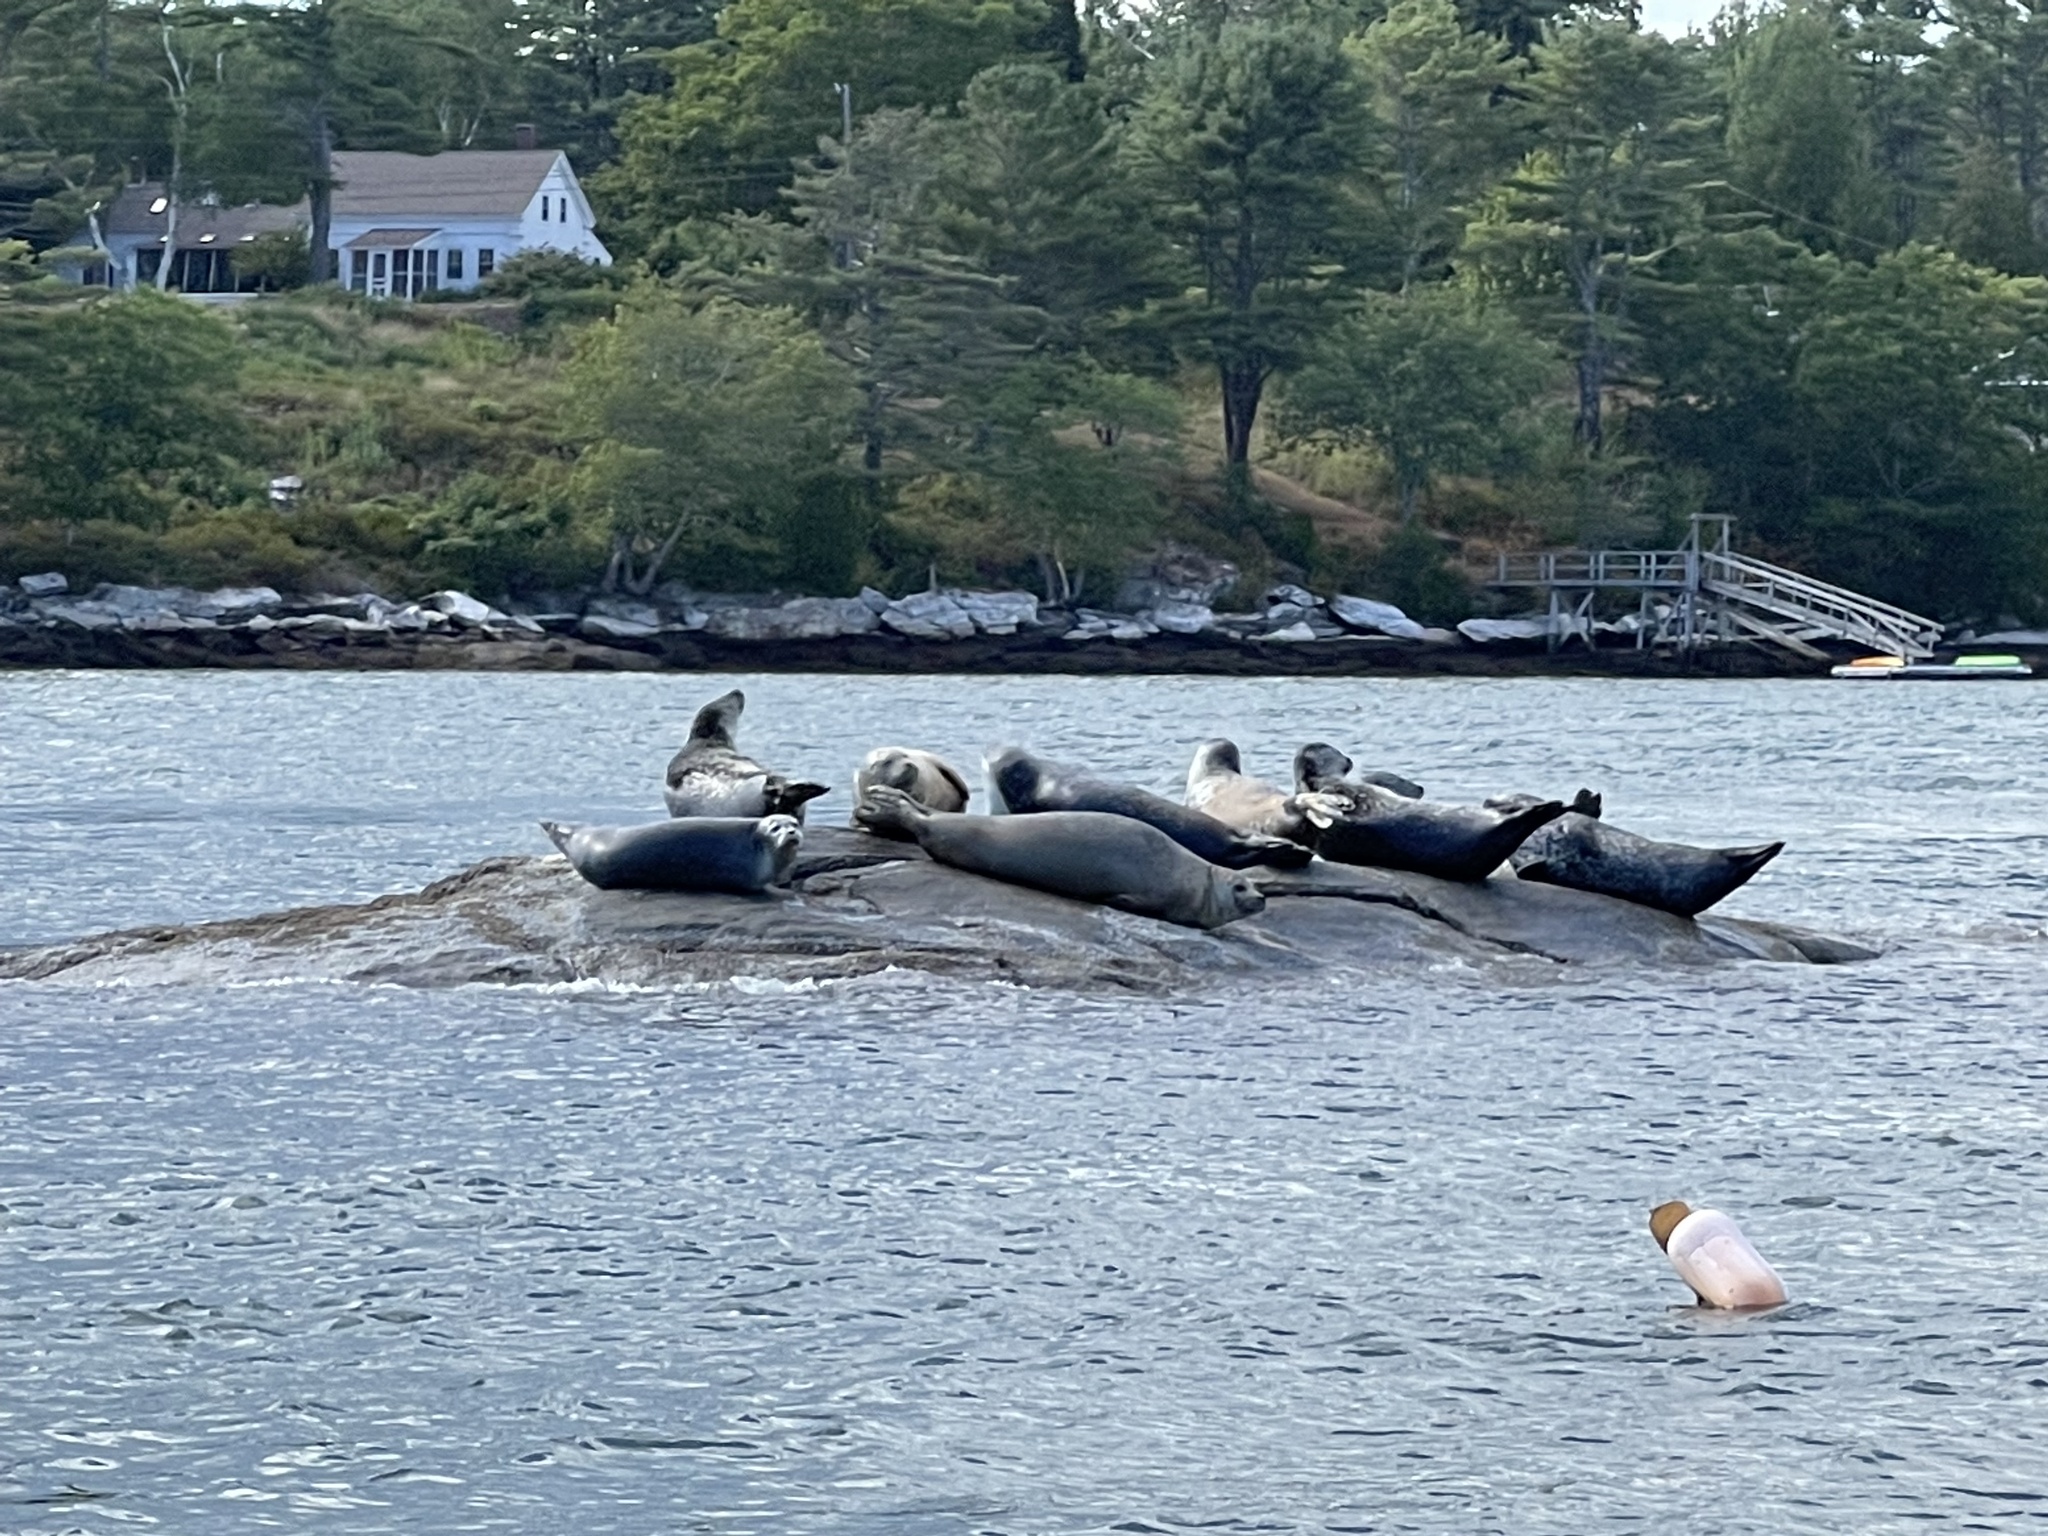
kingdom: Animalia
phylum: Chordata
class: Mammalia
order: Carnivora
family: Phocidae
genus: Phoca
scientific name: Phoca vitulina
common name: Harbor seal
